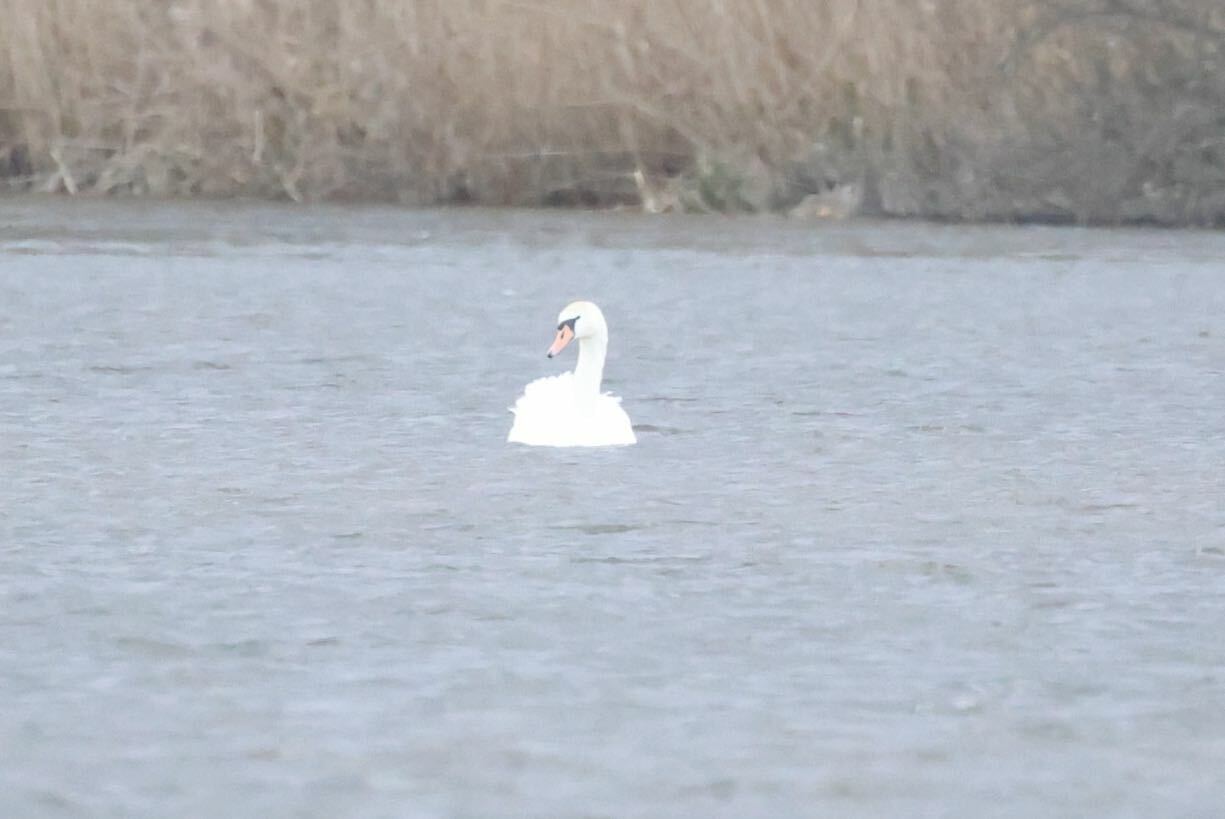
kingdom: Animalia
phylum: Chordata
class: Aves
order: Anseriformes
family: Anatidae
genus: Cygnus
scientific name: Cygnus olor
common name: Mute swan
